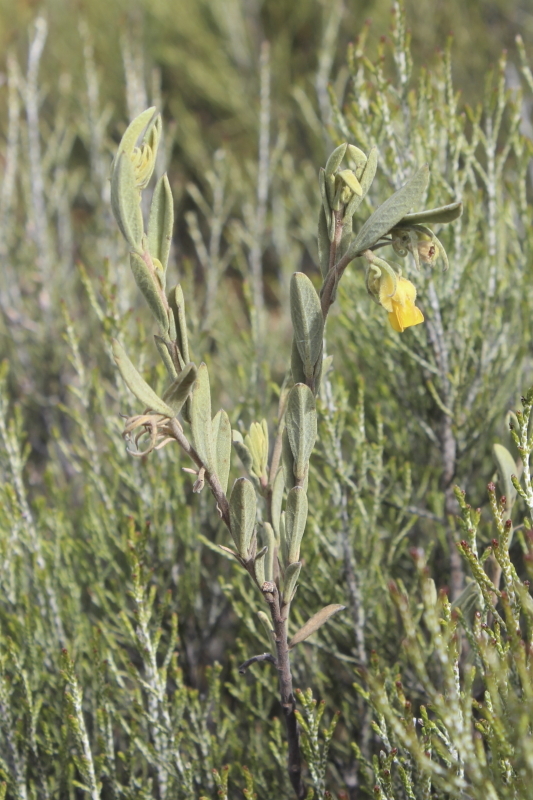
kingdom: Plantae
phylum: Tracheophyta
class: Magnoliopsida
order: Malvales
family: Malvaceae
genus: Hermannia
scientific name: Hermannia velutina
